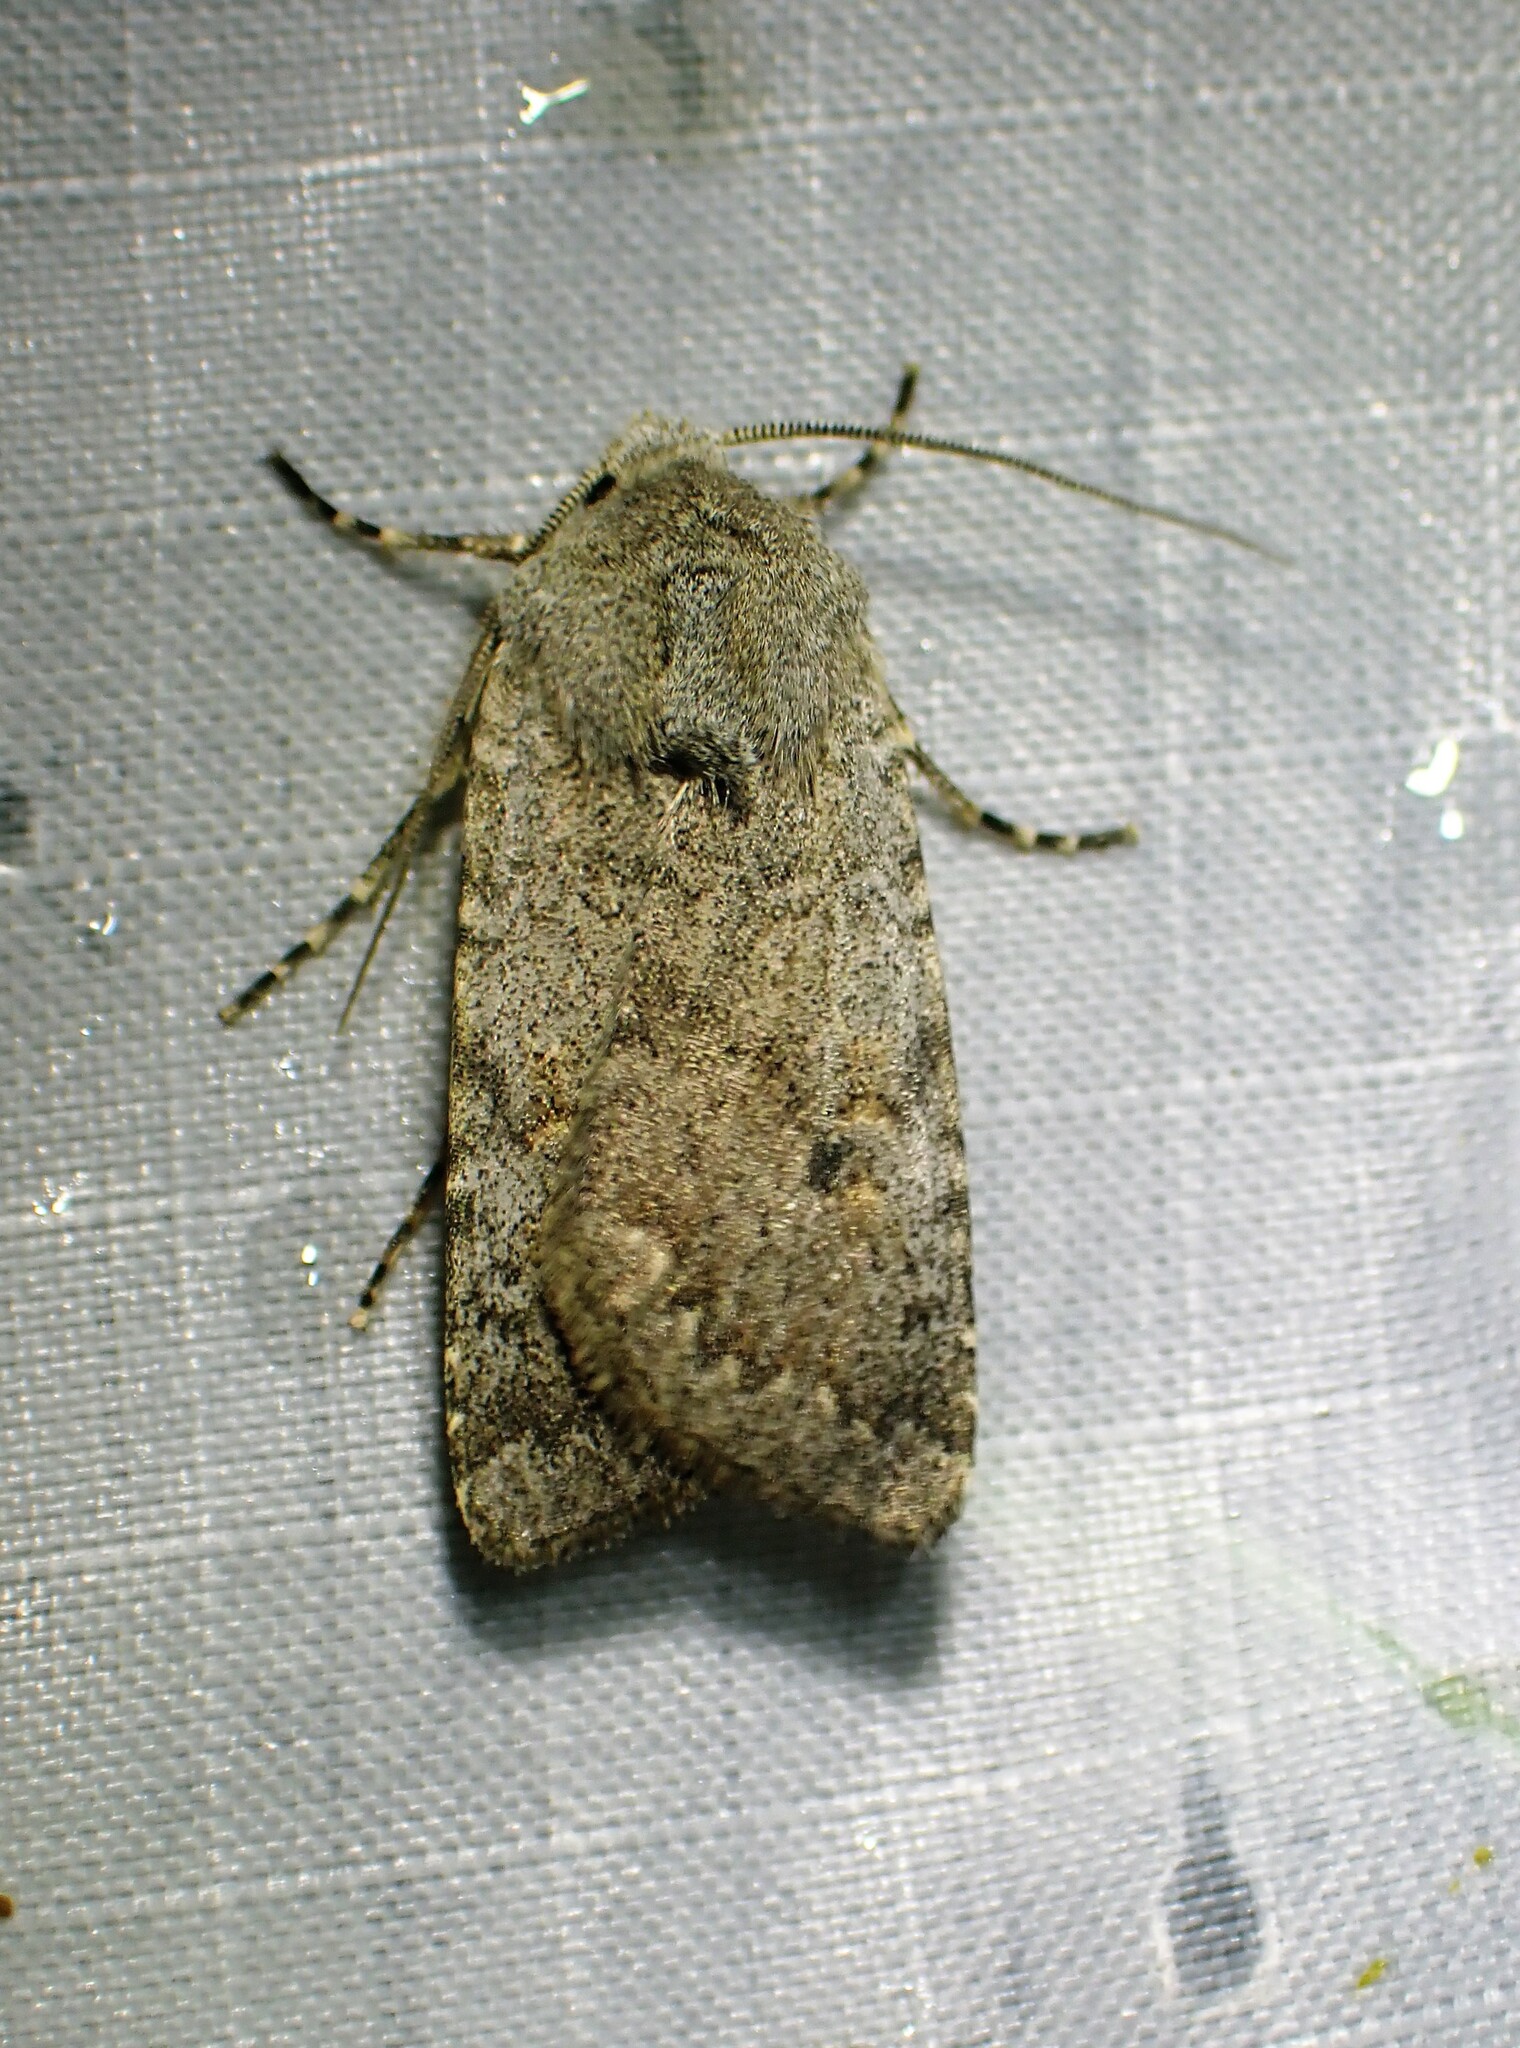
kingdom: Animalia
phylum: Arthropoda
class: Insecta
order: Lepidoptera
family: Noctuidae
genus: Euxoa
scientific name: Euxoa quebecensis
